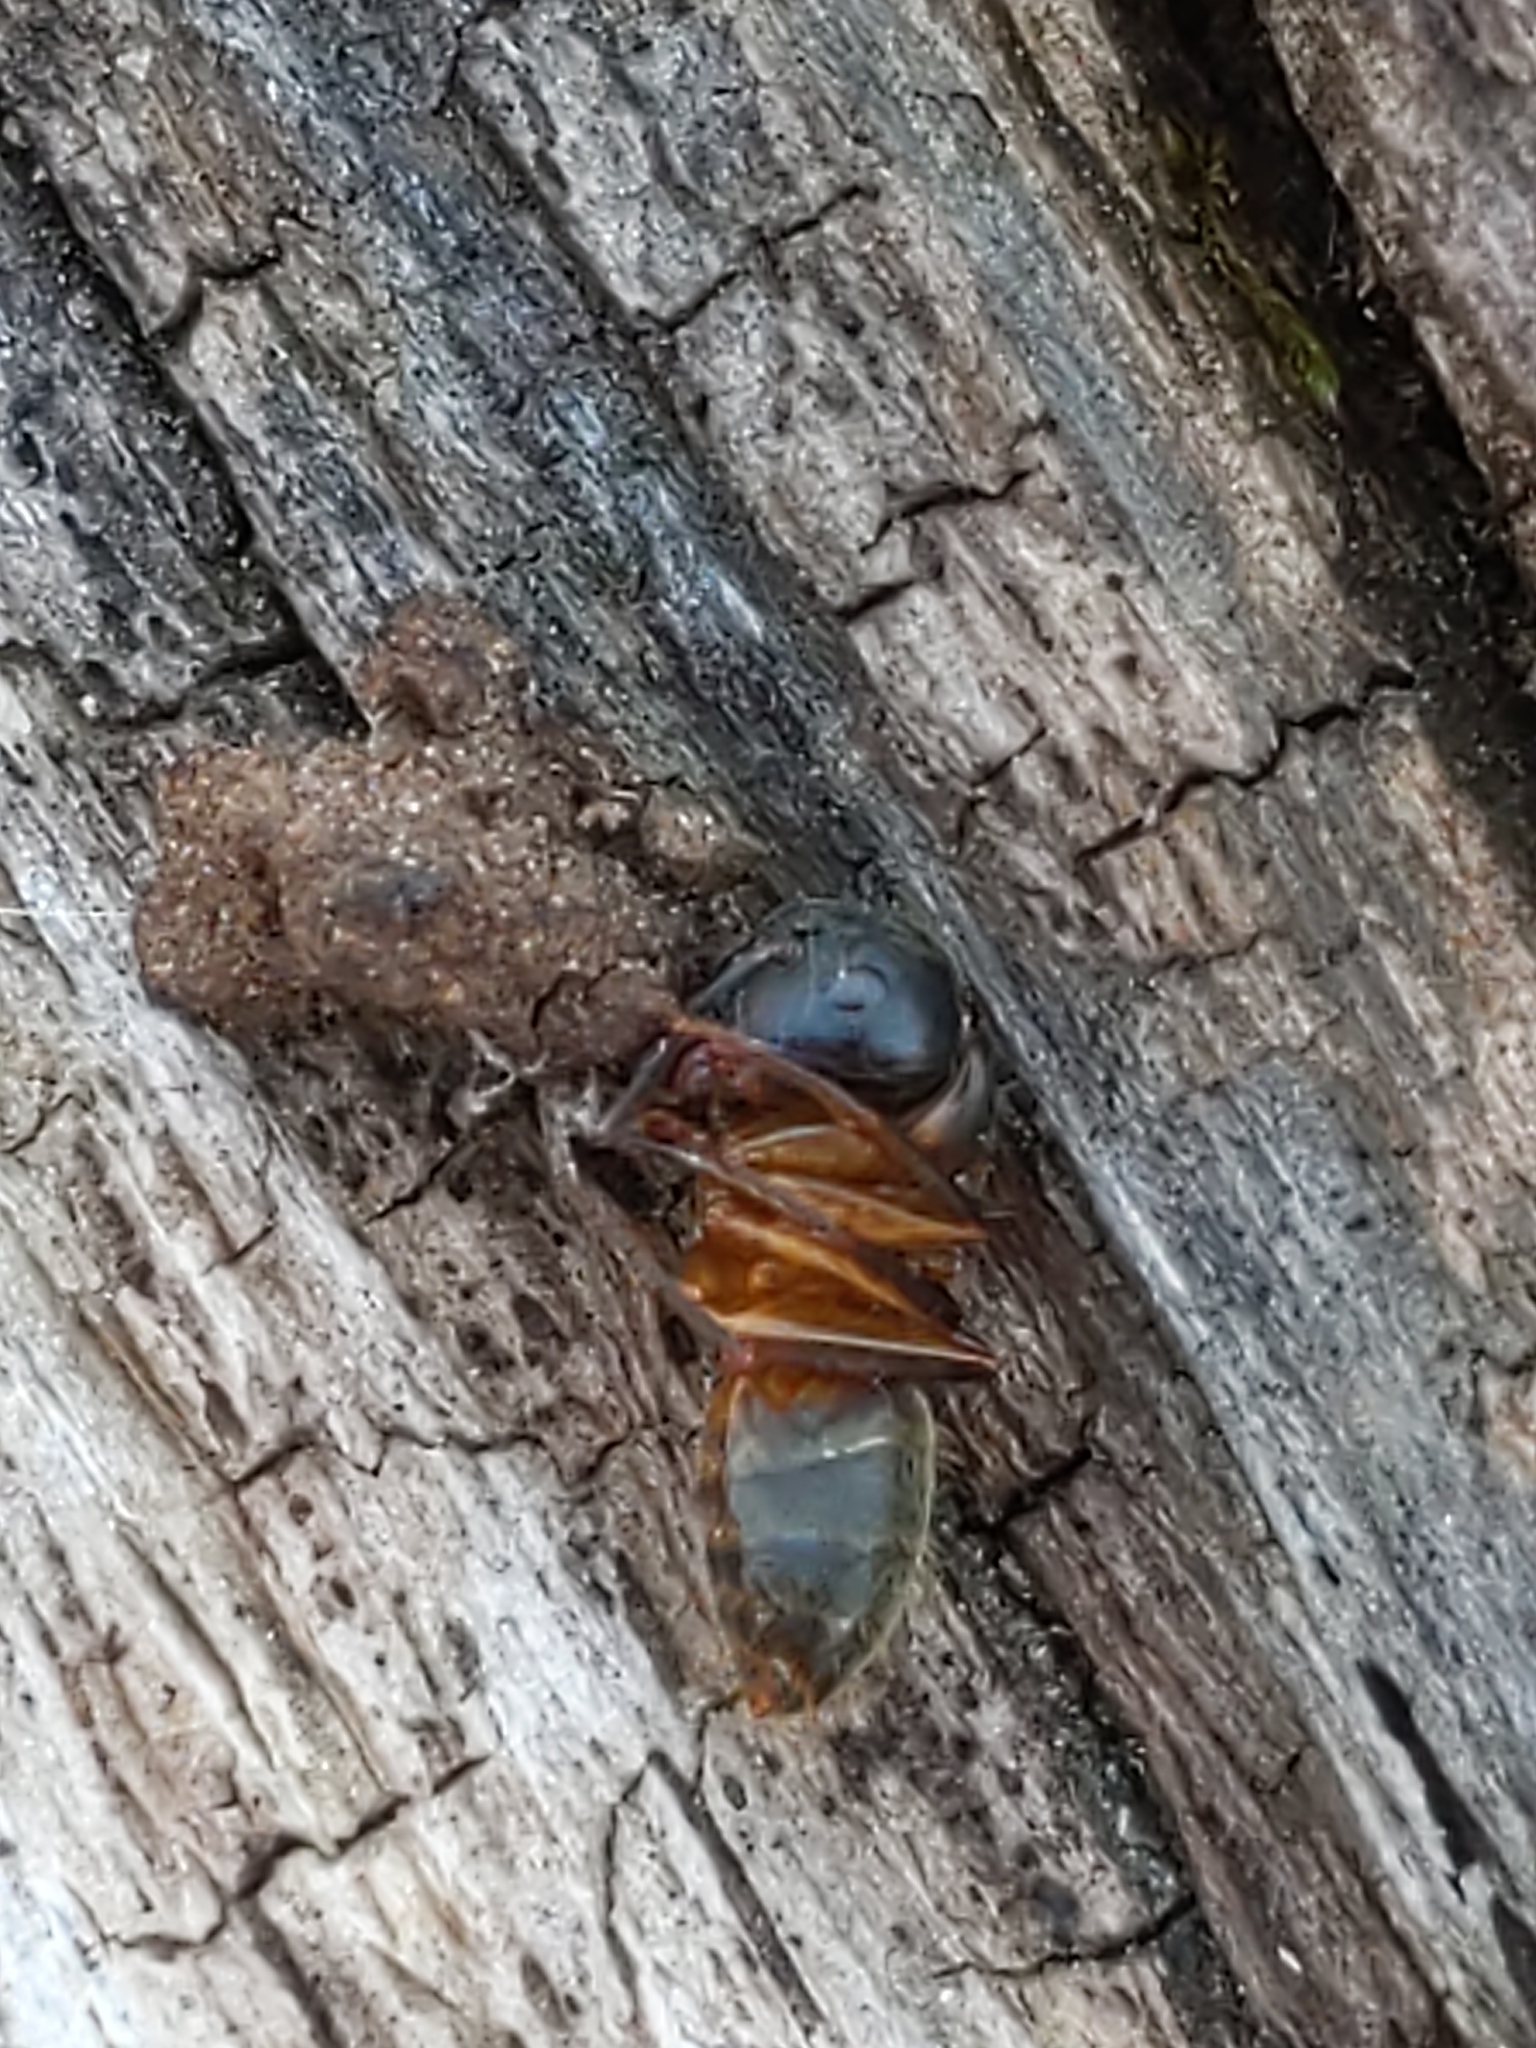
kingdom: Animalia
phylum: Arthropoda
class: Insecta
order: Hymenoptera
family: Formicidae
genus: Camponotus
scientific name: Camponotus chromaiodes
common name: Red carpenter ant
